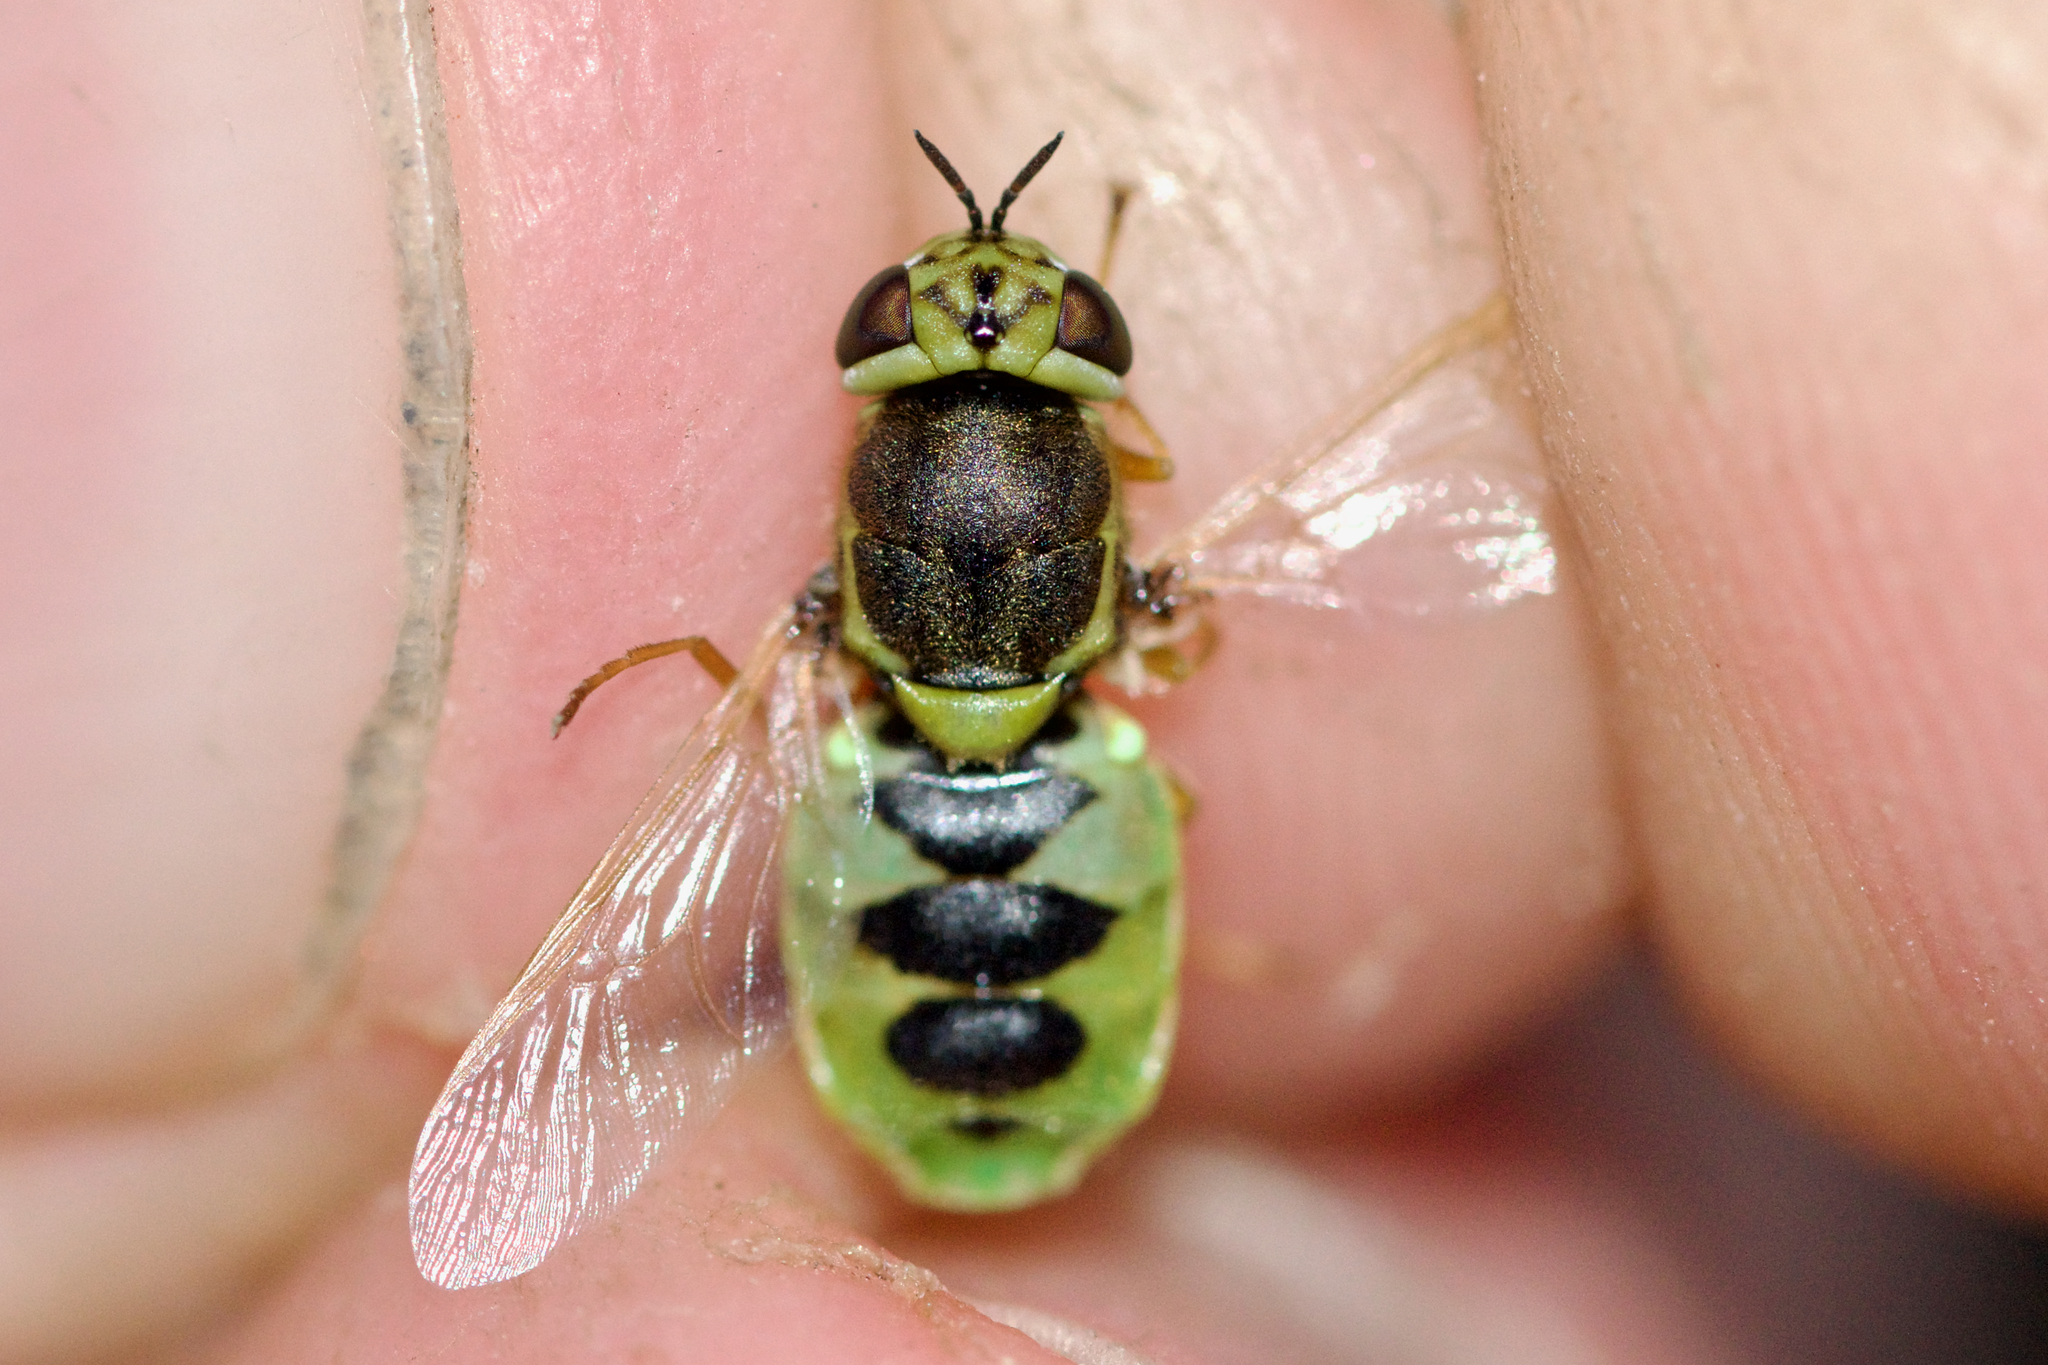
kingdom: Animalia
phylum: Arthropoda
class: Insecta
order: Diptera
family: Stratiomyidae
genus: Hedriodiscus
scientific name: Hedriodiscus vertebratus
